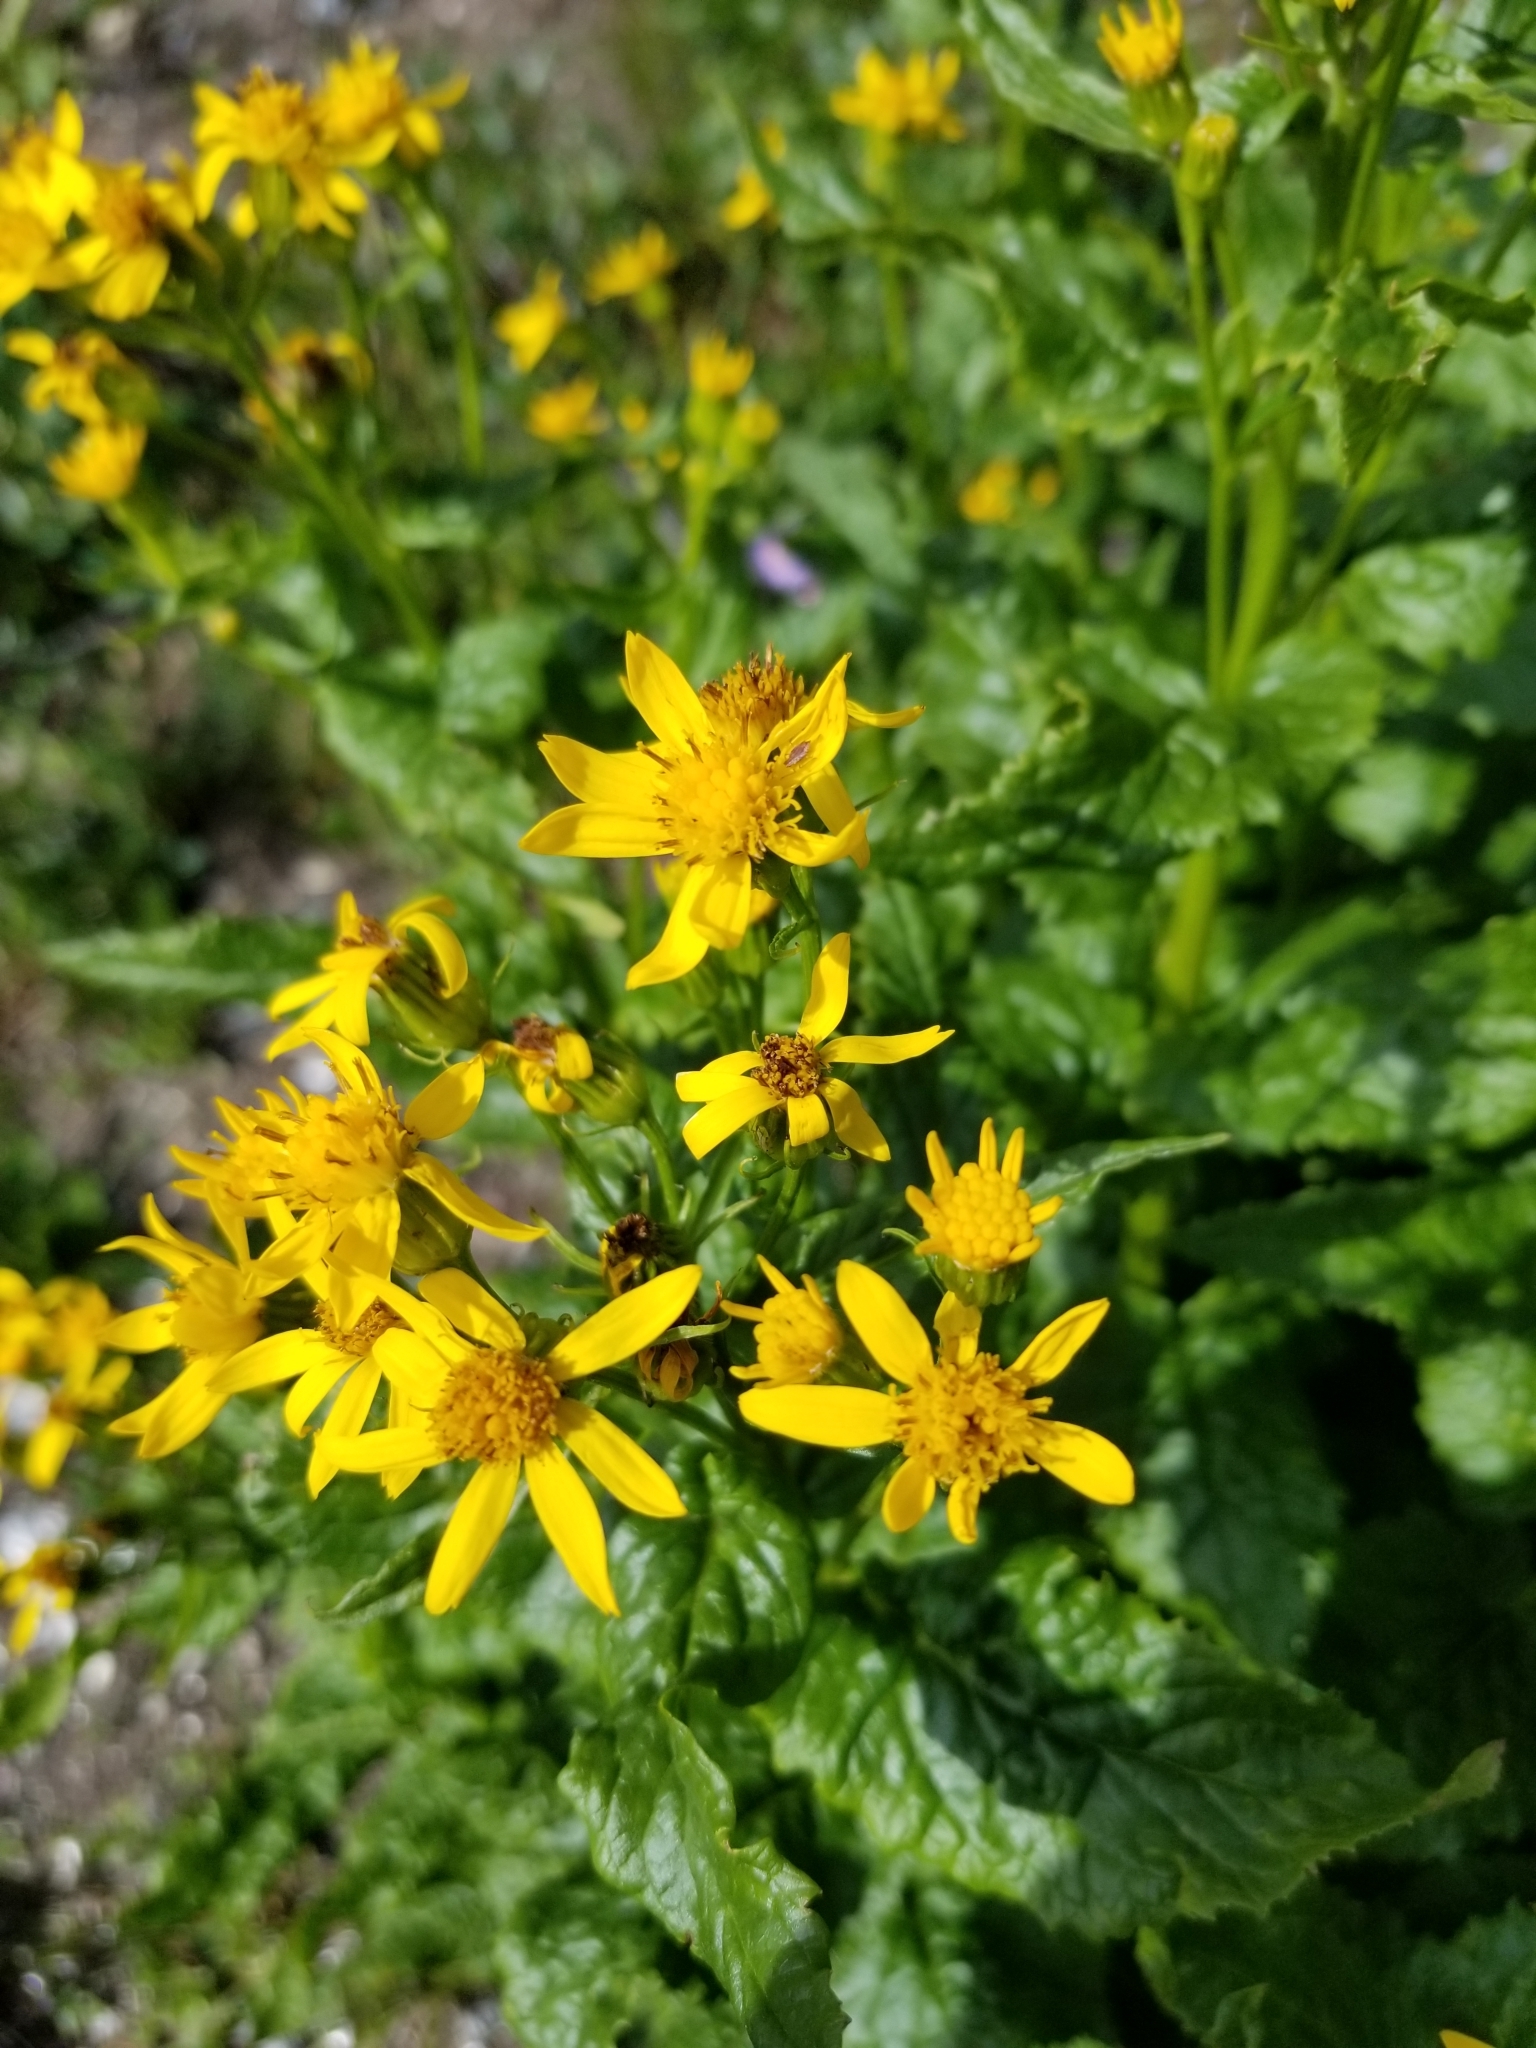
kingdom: Plantae
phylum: Tracheophyta
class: Magnoliopsida
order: Asterales
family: Asteraceae
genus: Senecio
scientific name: Senecio triangularis
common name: Arrowleaf butterweed
